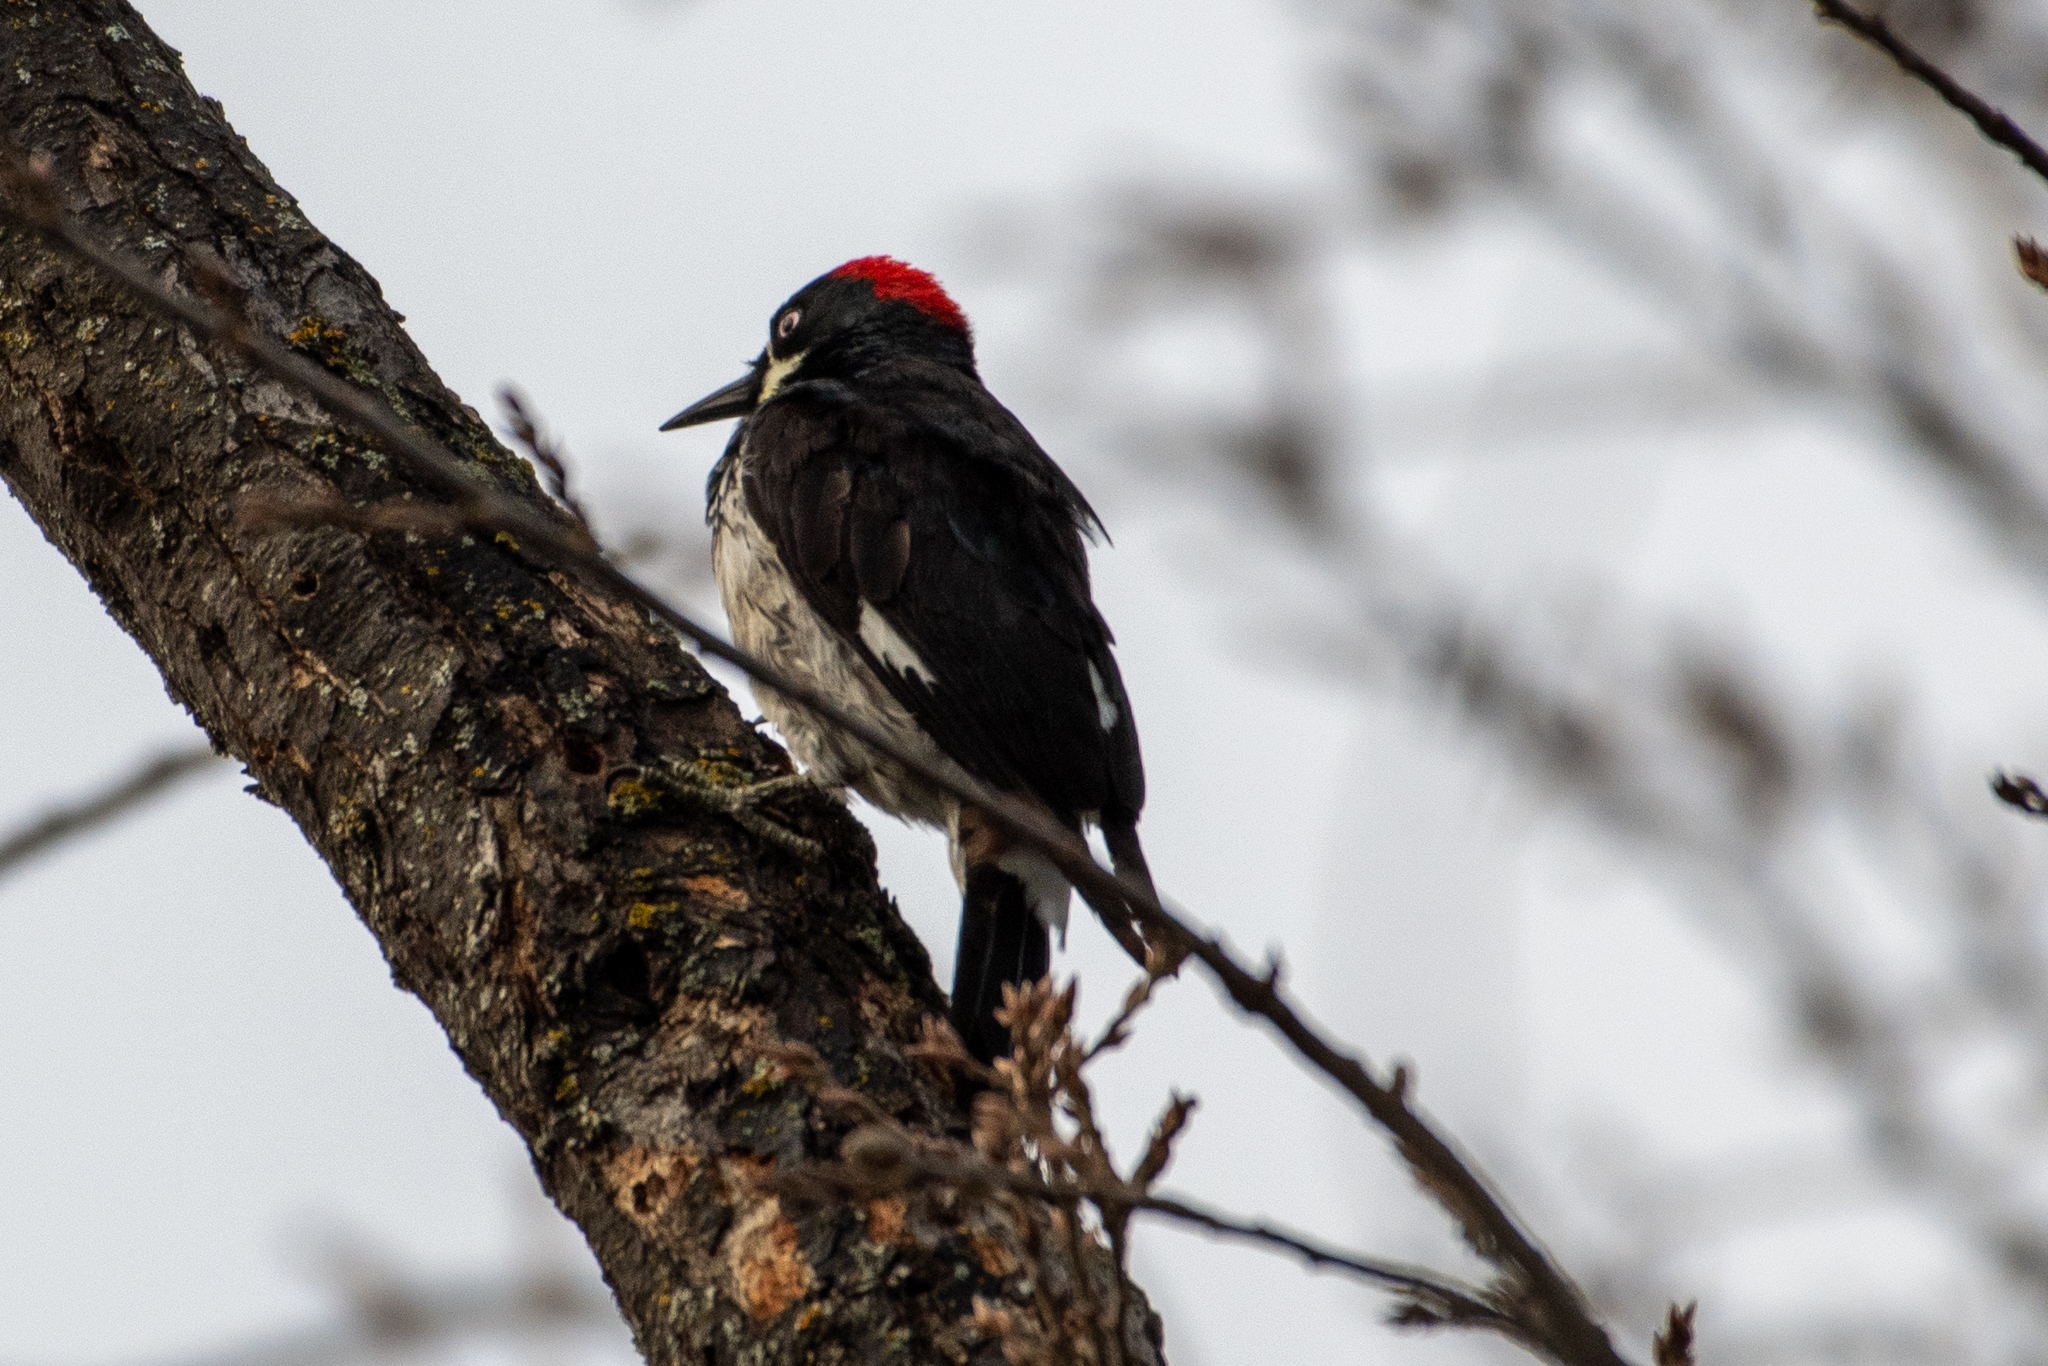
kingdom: Animalia
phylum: Chordata
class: Aves
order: Piciformes
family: Picidae
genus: Melanerpes
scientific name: Melanerpes formicivorus
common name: Acorn woodpecker
